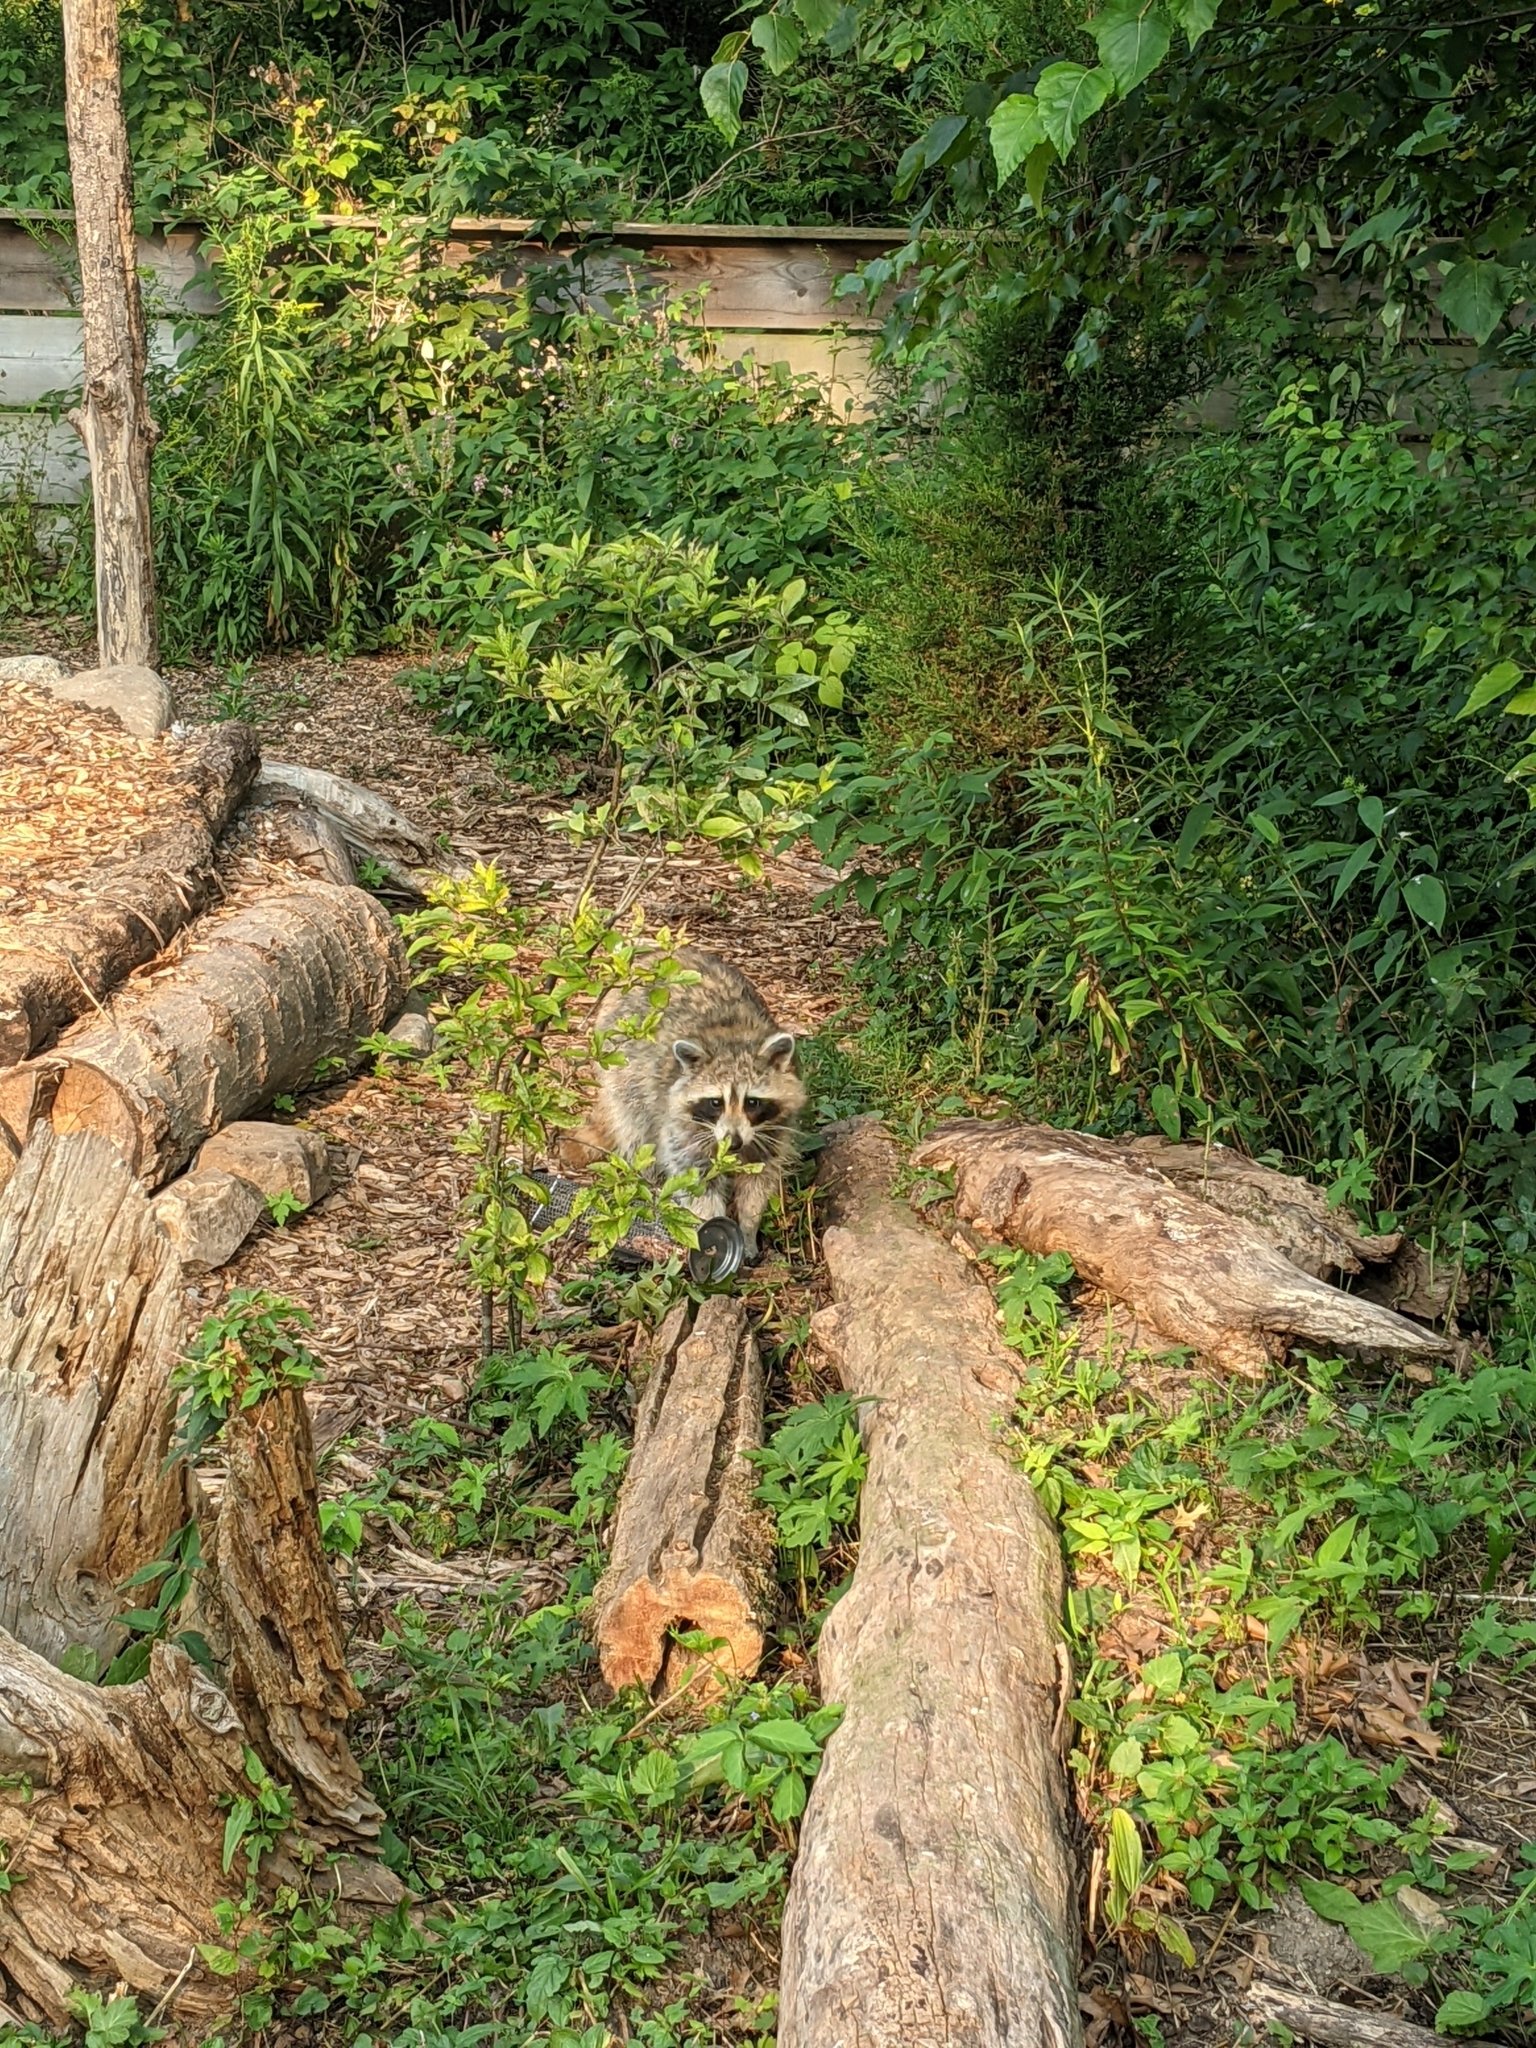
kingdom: Animalia
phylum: Chordata
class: Mammalia
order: Carnivora
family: Procyonidae
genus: Procyon
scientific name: Procyon lotor
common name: Raccoon
